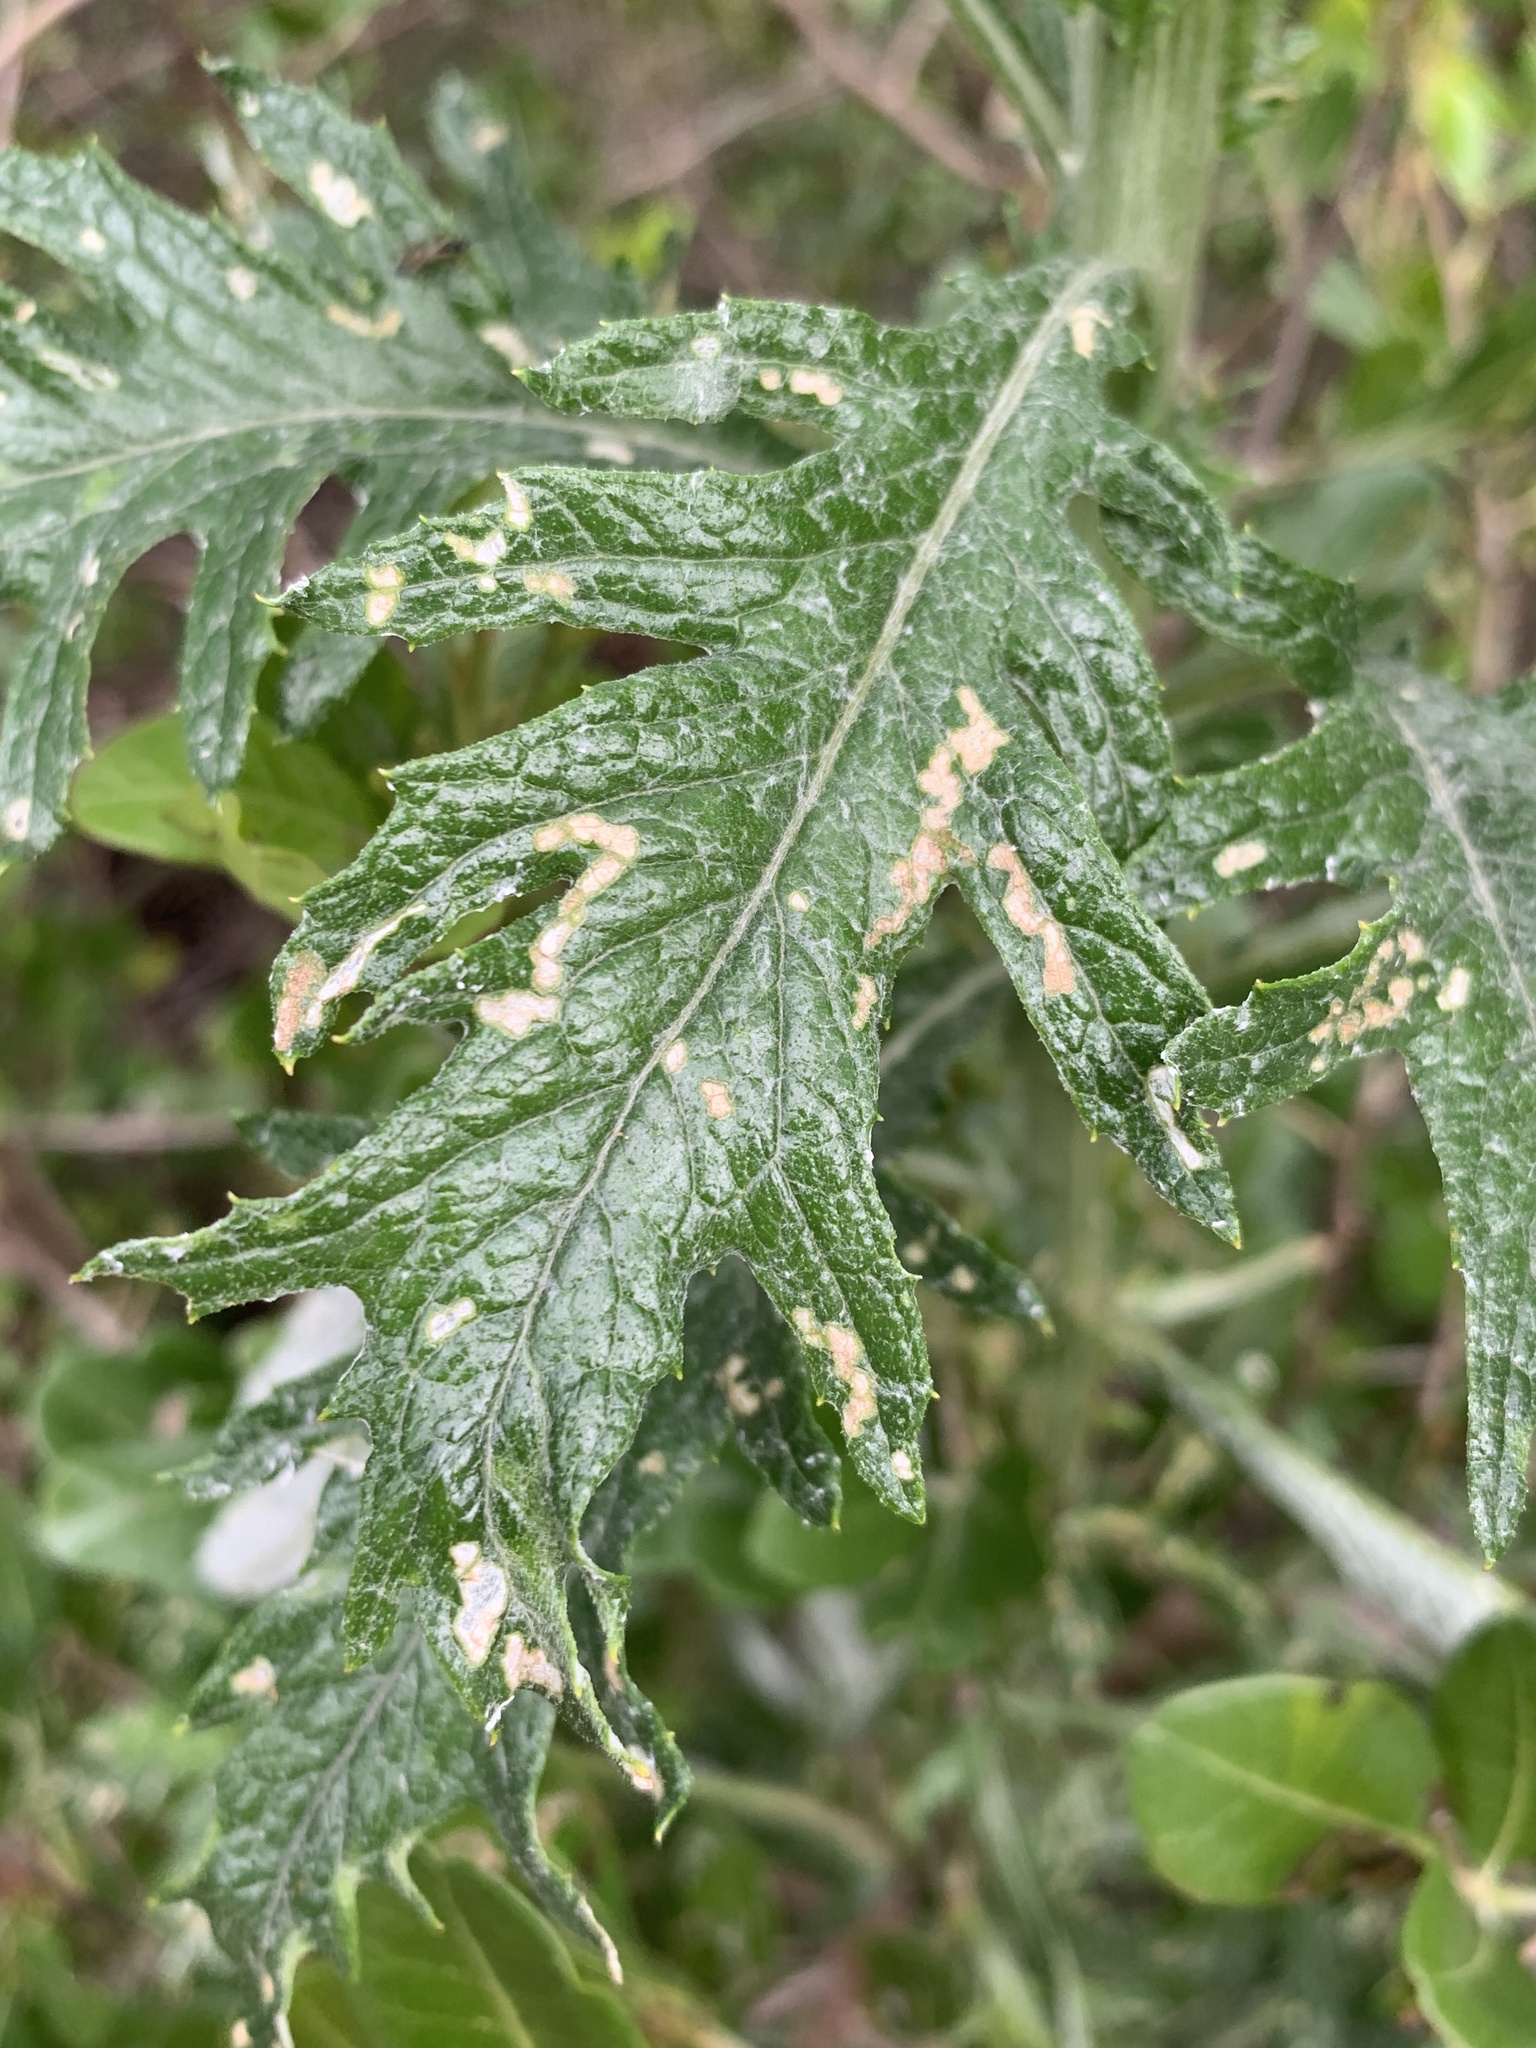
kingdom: Plantae
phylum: Tracheophyta
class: Magnoliopsida
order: Asterales
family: Asteraceae
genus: Senecio
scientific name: Senecio pterophorus
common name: Shoddy ragwort
